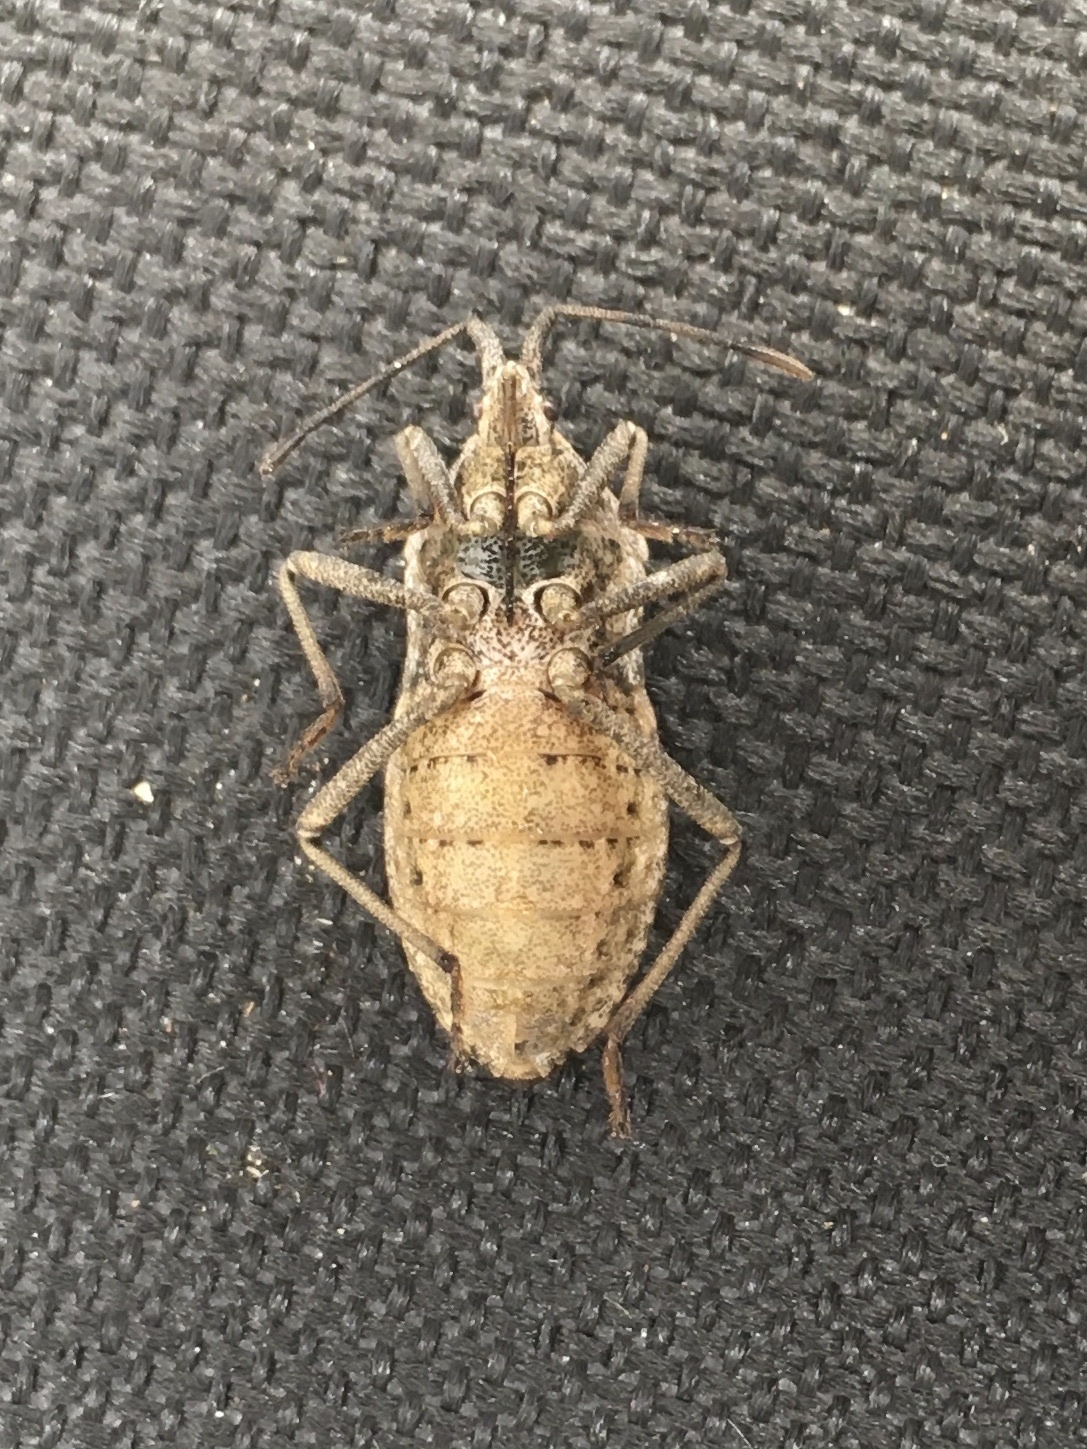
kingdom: Animalia
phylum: Arthropoda
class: Insecta
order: Hemiptera
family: Coreidae
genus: Anasa
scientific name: Anasa tristis
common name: Squash bug
